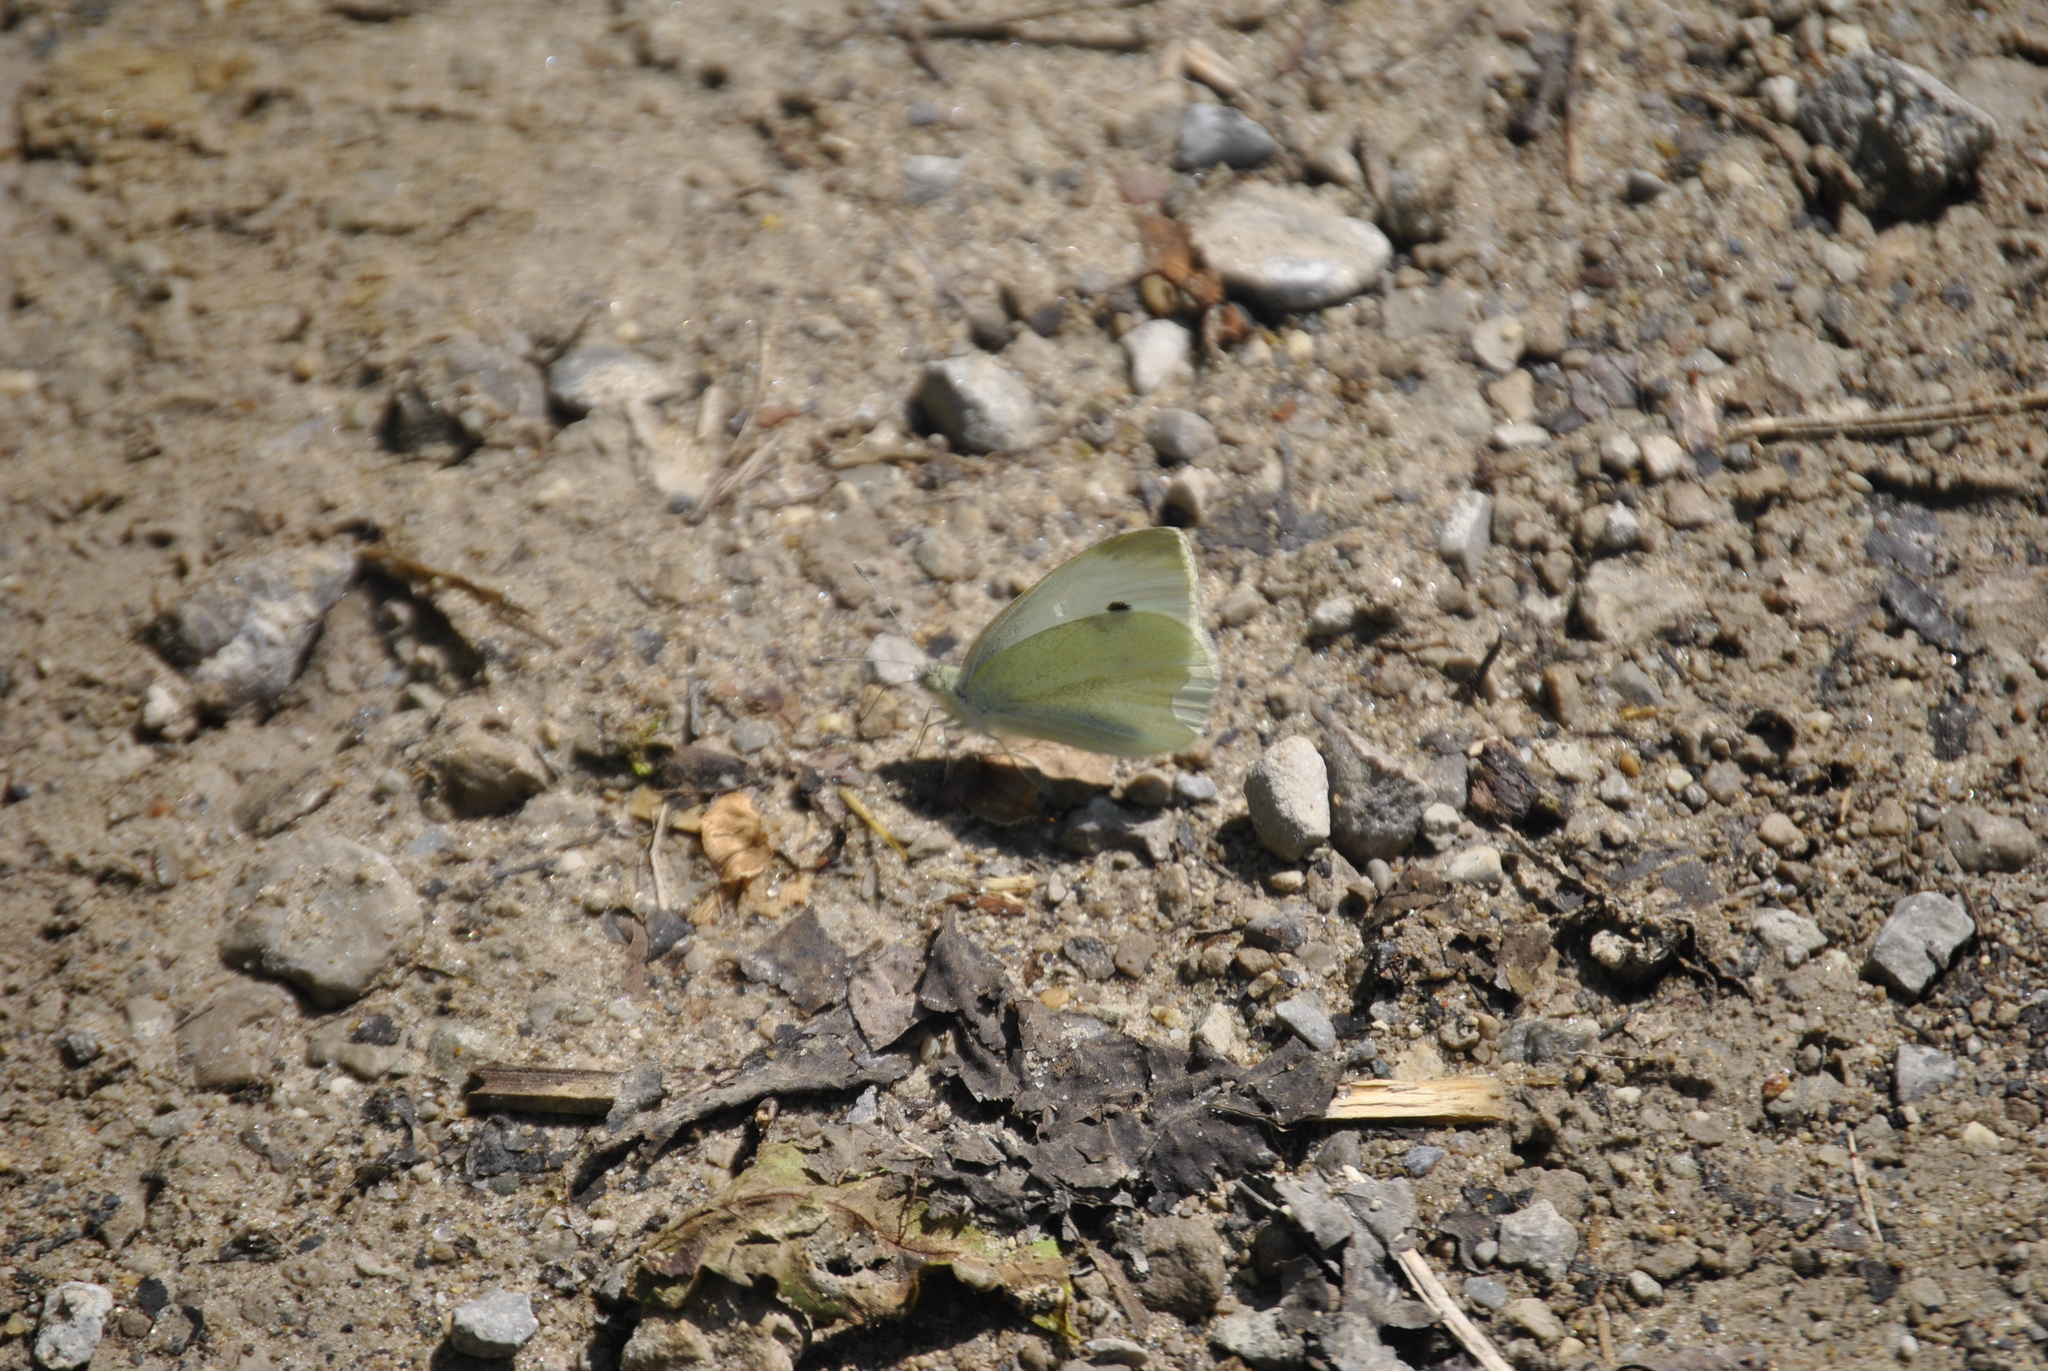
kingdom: Animalia
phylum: Arthropoda
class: Insecta
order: Lepidoptera
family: Pieridae
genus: Pieris
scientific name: Pieris rapae
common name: Small white
